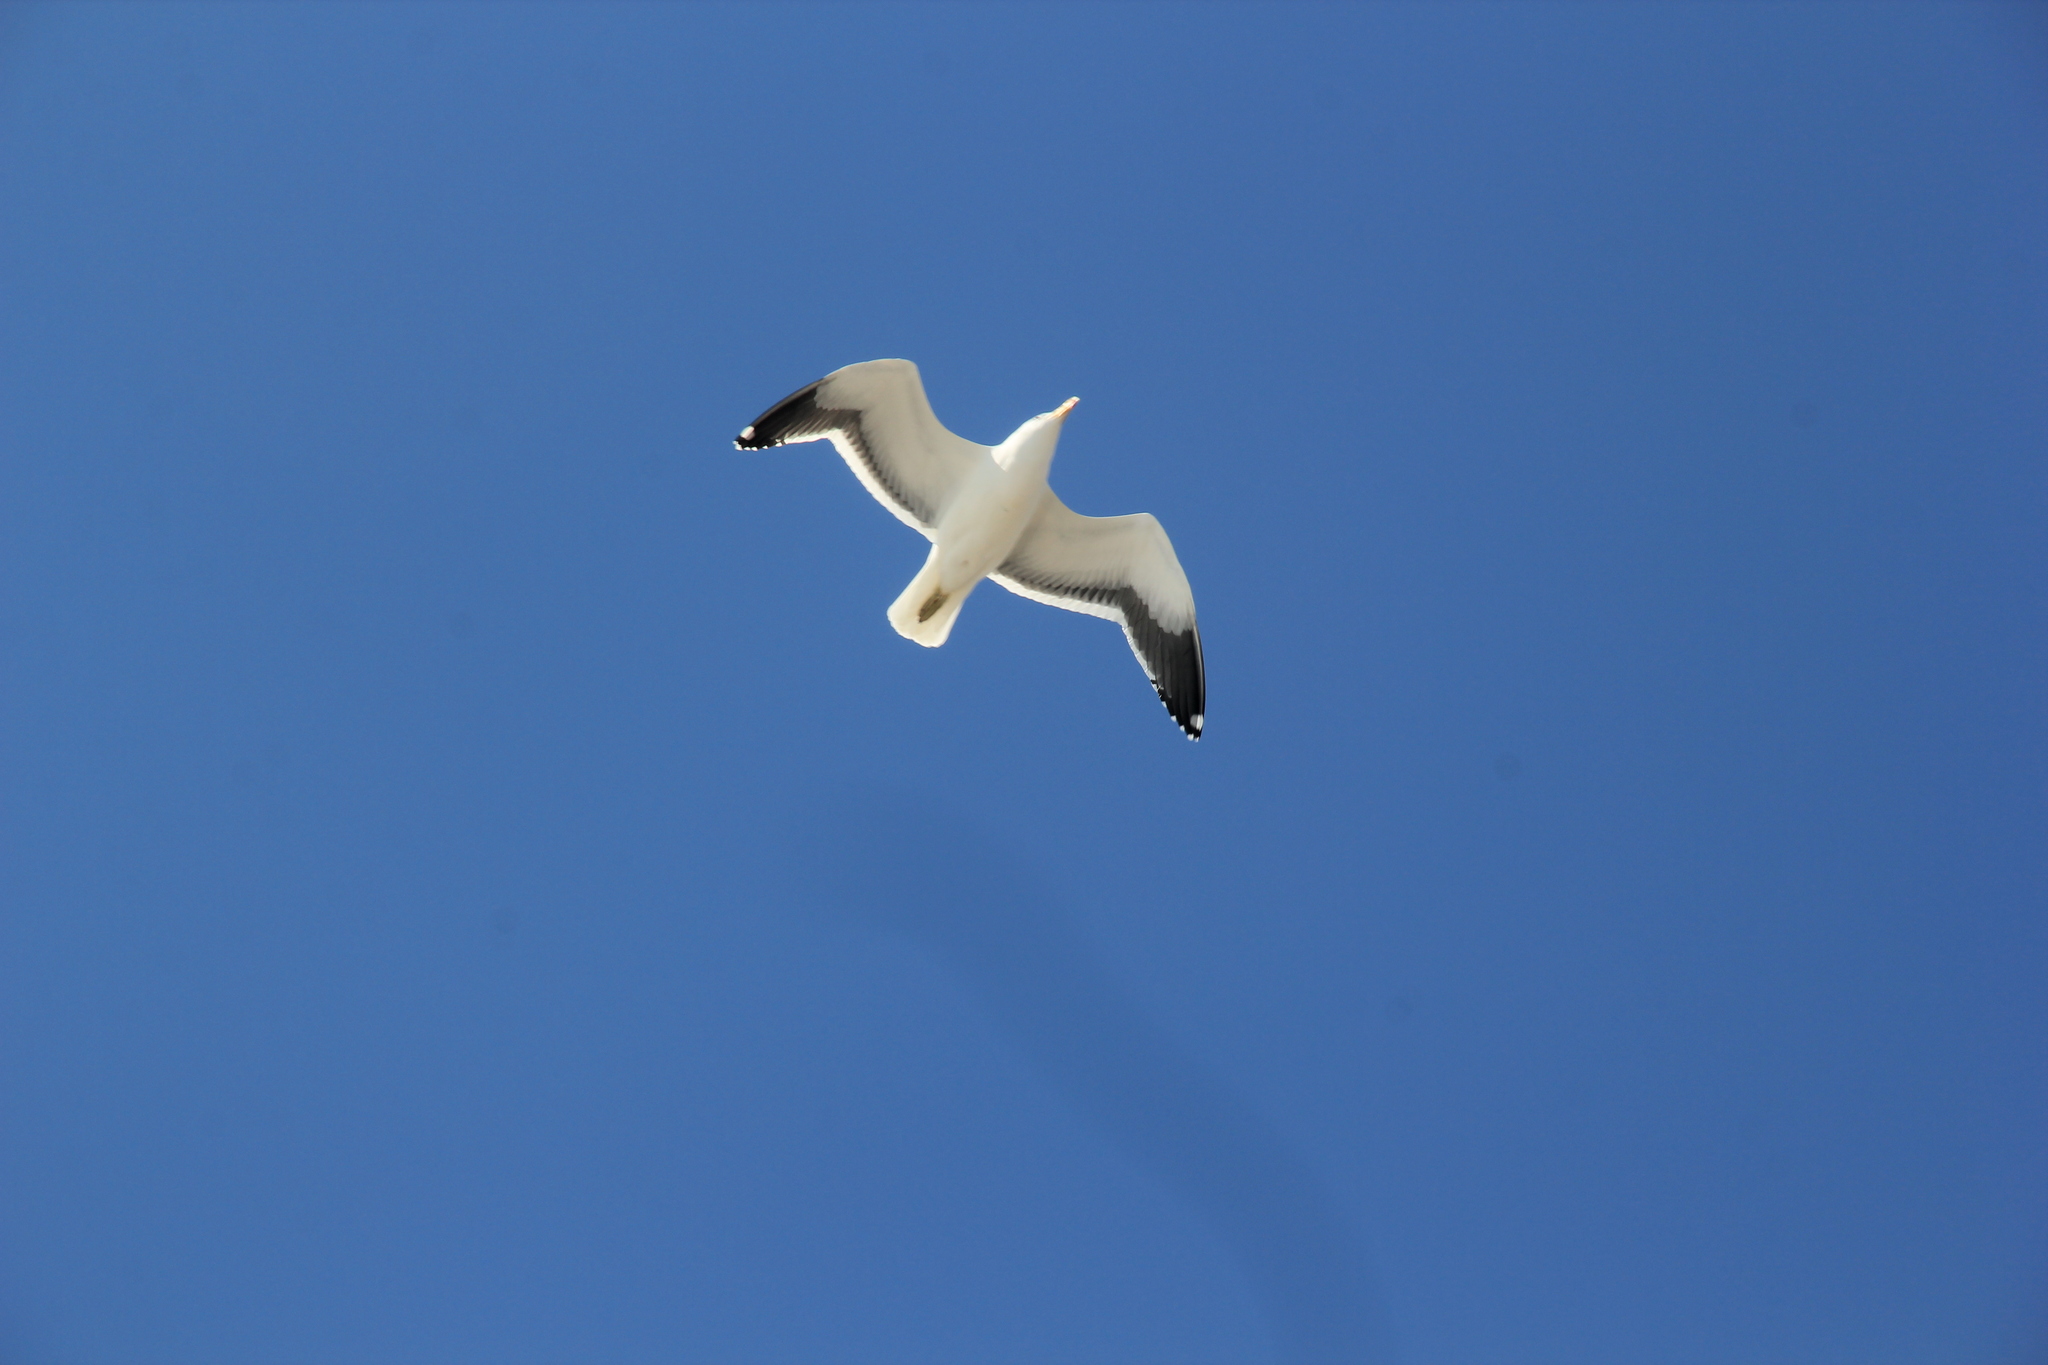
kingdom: Animalia
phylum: Chordata
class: Aves
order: Charadriiformes
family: Laridae
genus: Larus
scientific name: Larus dominicanus
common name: Kelp gull
